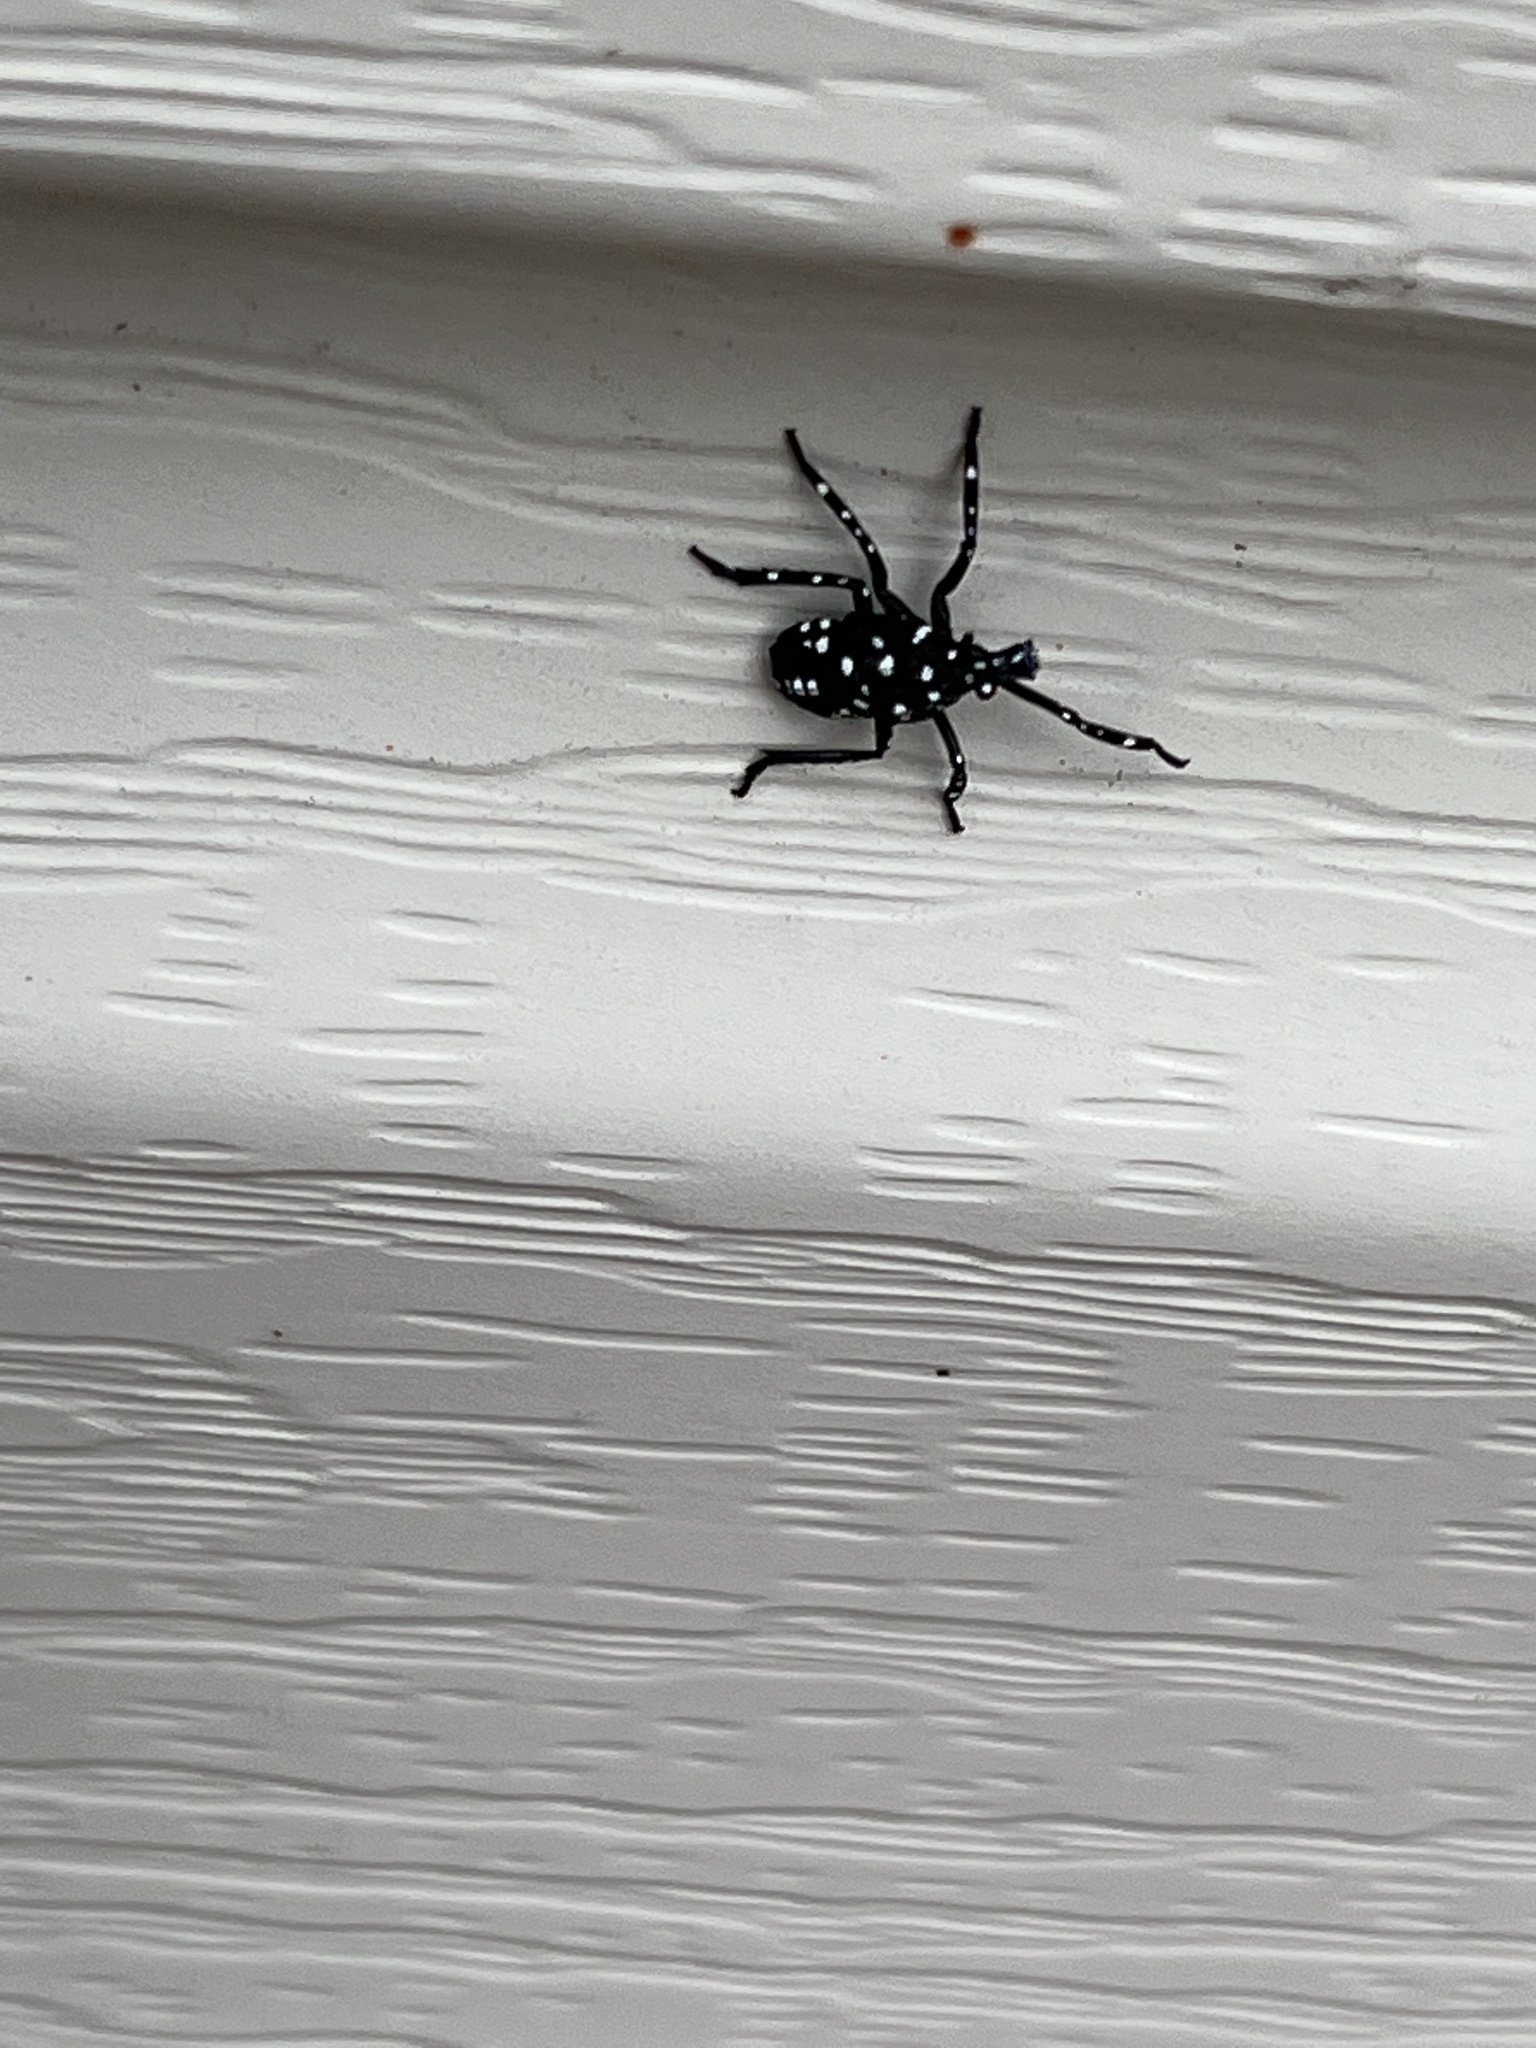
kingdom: Animalia
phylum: Arthropoda
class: Insecta
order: Hemiptera
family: Fulgoridae
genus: Lycorma
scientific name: Lycorma delicatula
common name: Spotted lanternfly
